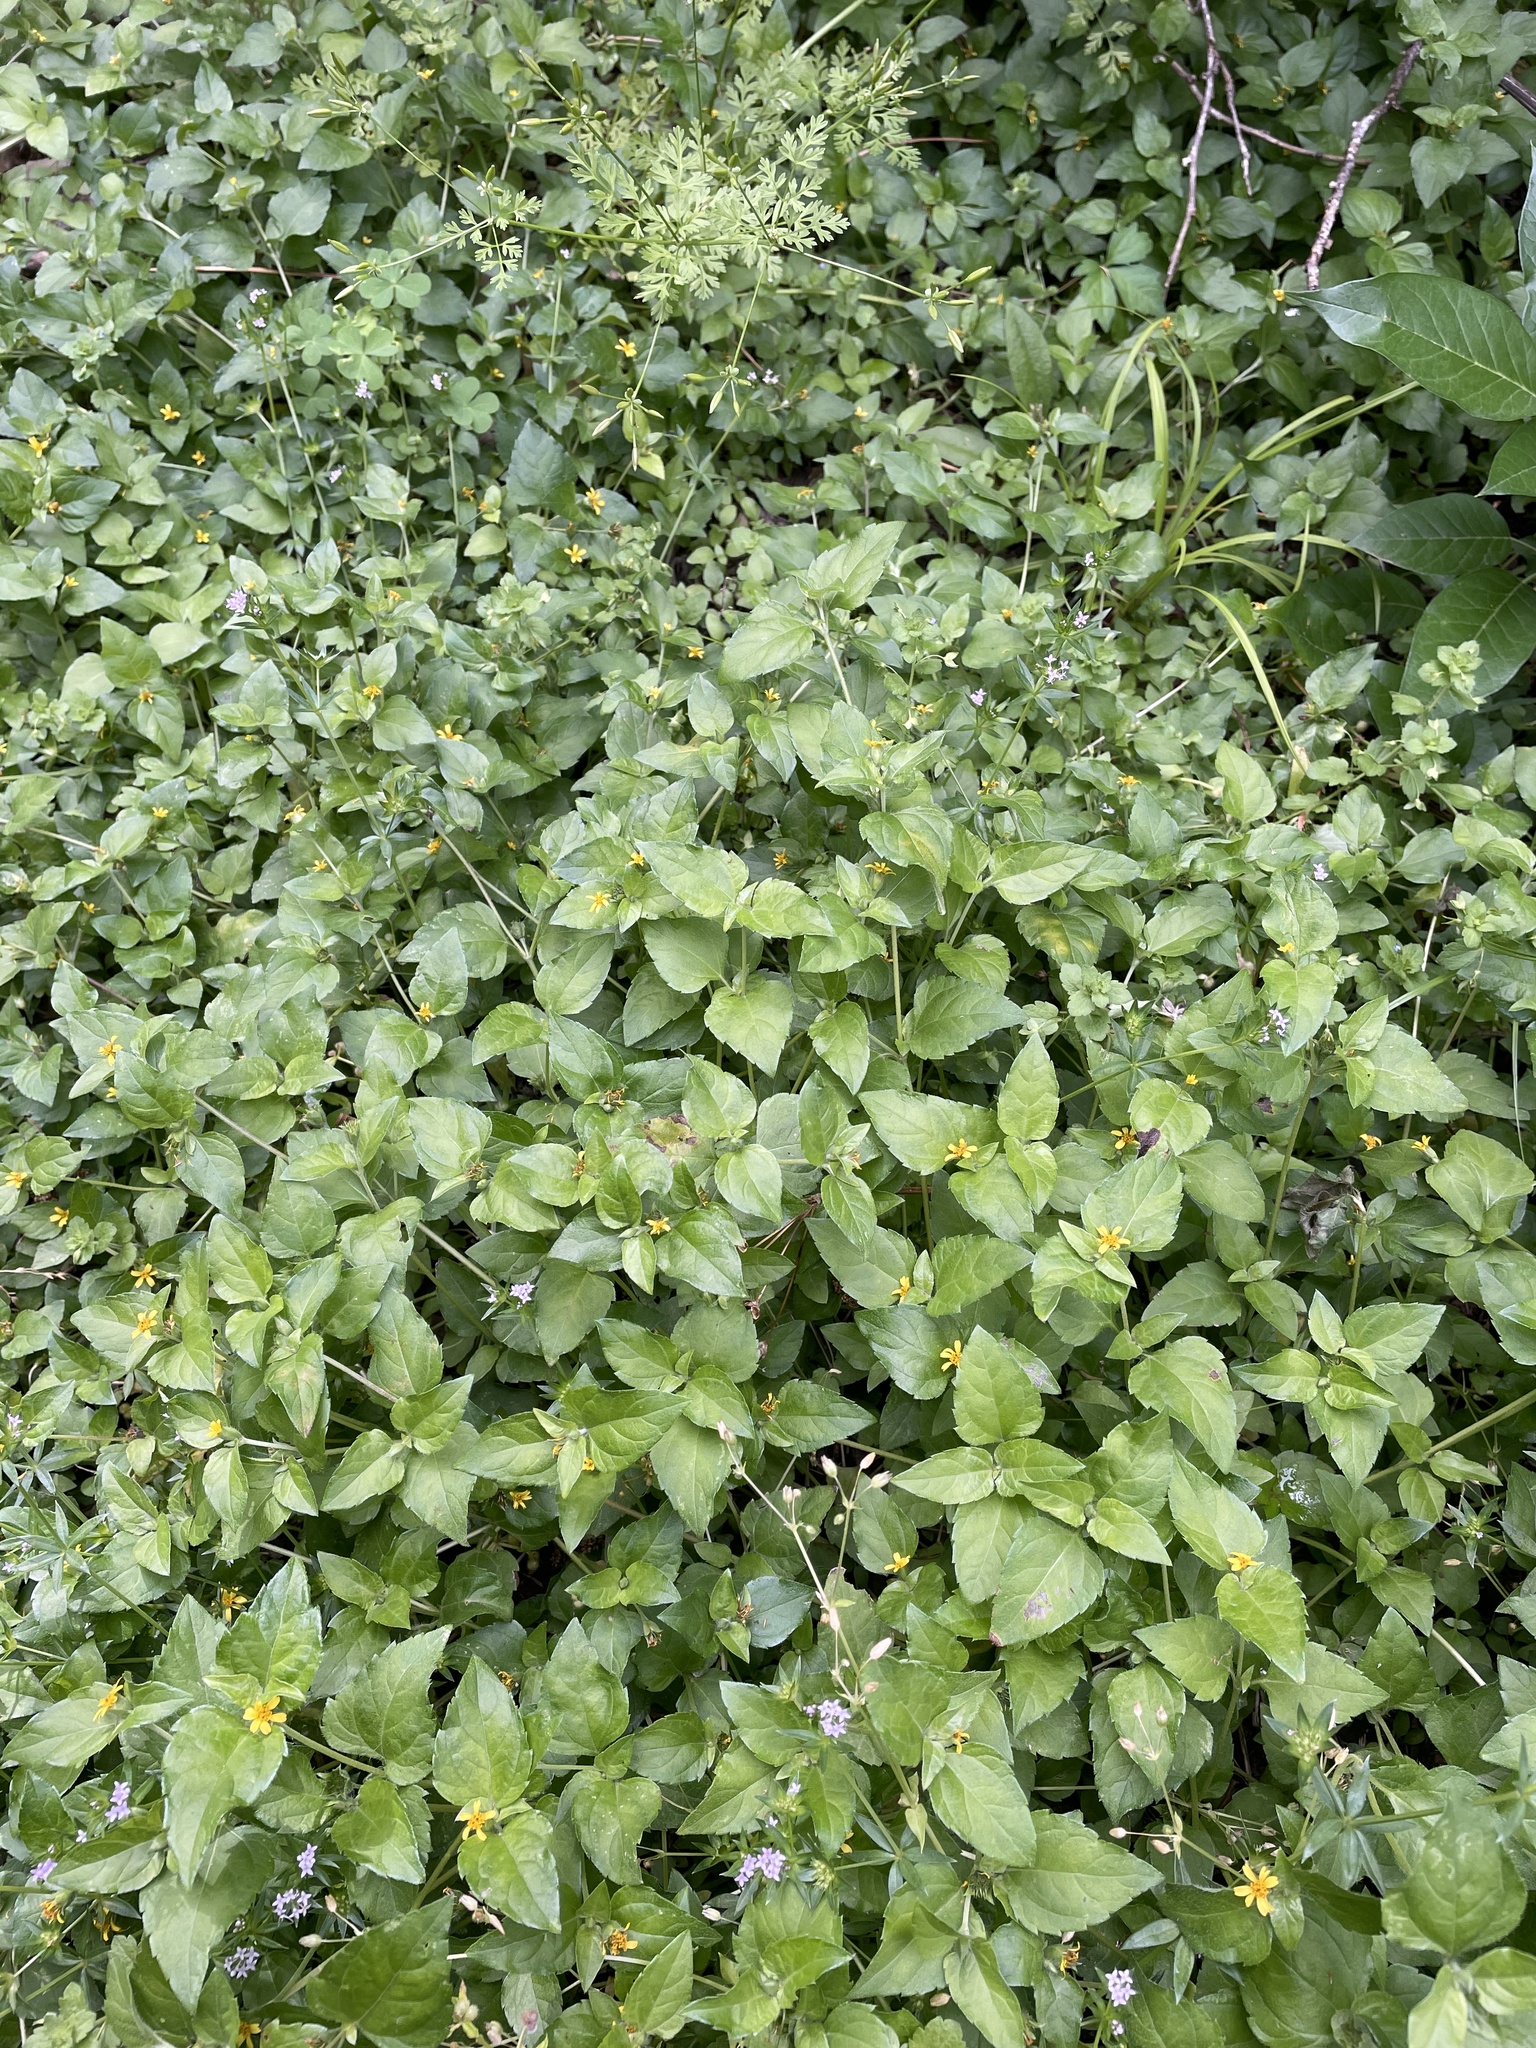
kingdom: Plantae
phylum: Tracheophyta
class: Magnoliopsida
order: Asterales
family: Asteraceae
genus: Calyptocarpus
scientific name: Calyptocarpus vialis
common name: Straggler daisy
